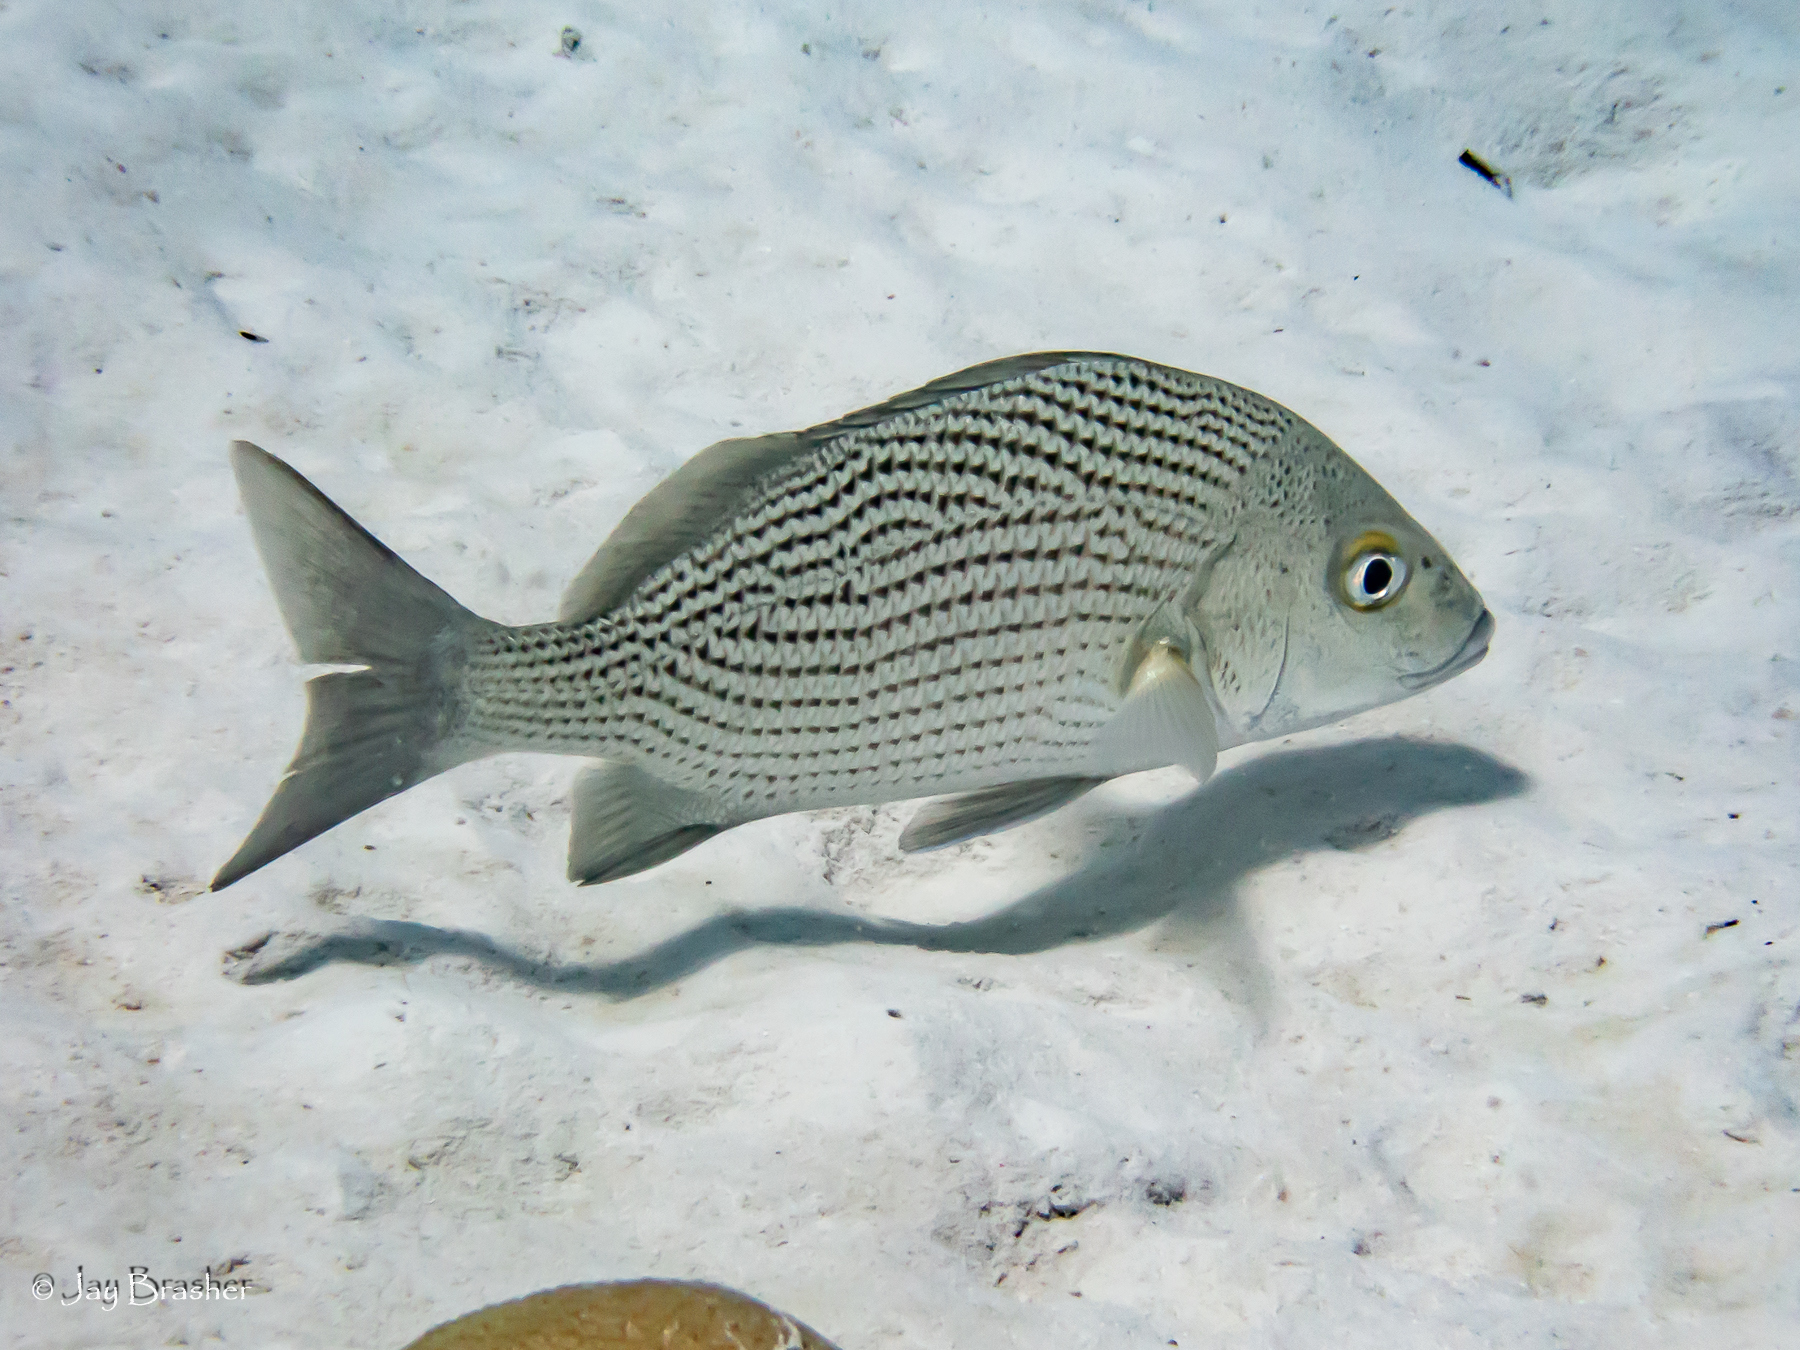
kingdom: Animalia
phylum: Chordata
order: Perciformes
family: Haemulidae
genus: Haemulon
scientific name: Haemulon parra
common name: Sailor's choice
